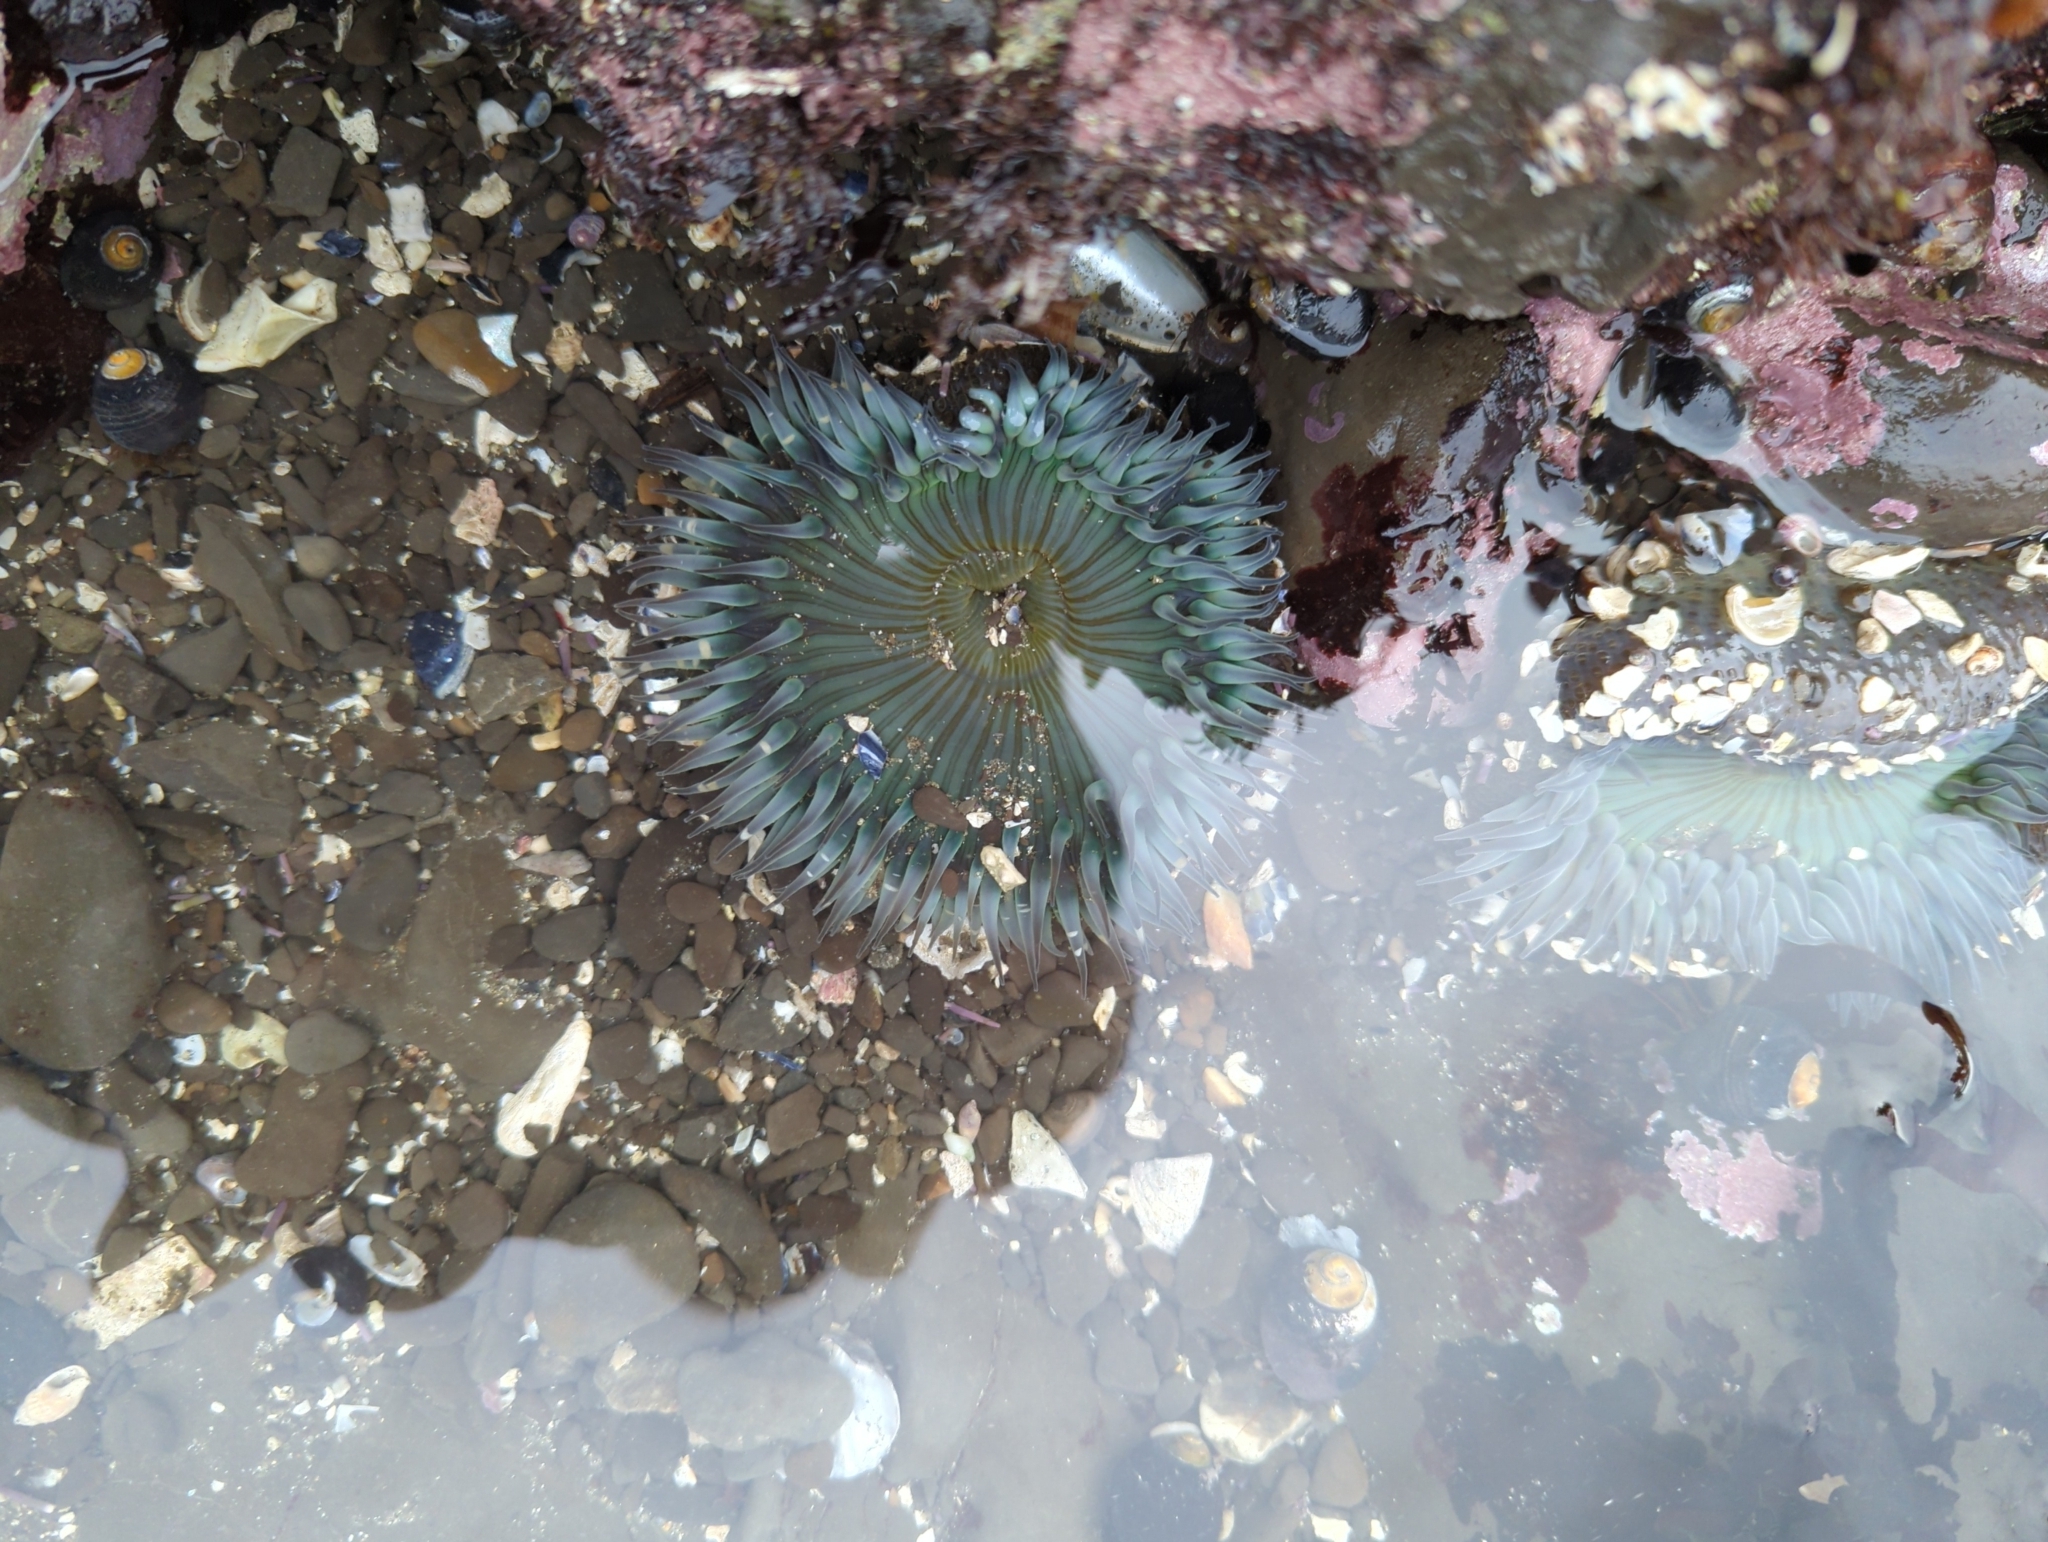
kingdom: Animalia
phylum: Cnidaria
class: Anthozoa
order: Actiniaria
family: Actiniidae
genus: Anthopleura
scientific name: Anthopleura sola
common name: Sun anemone
